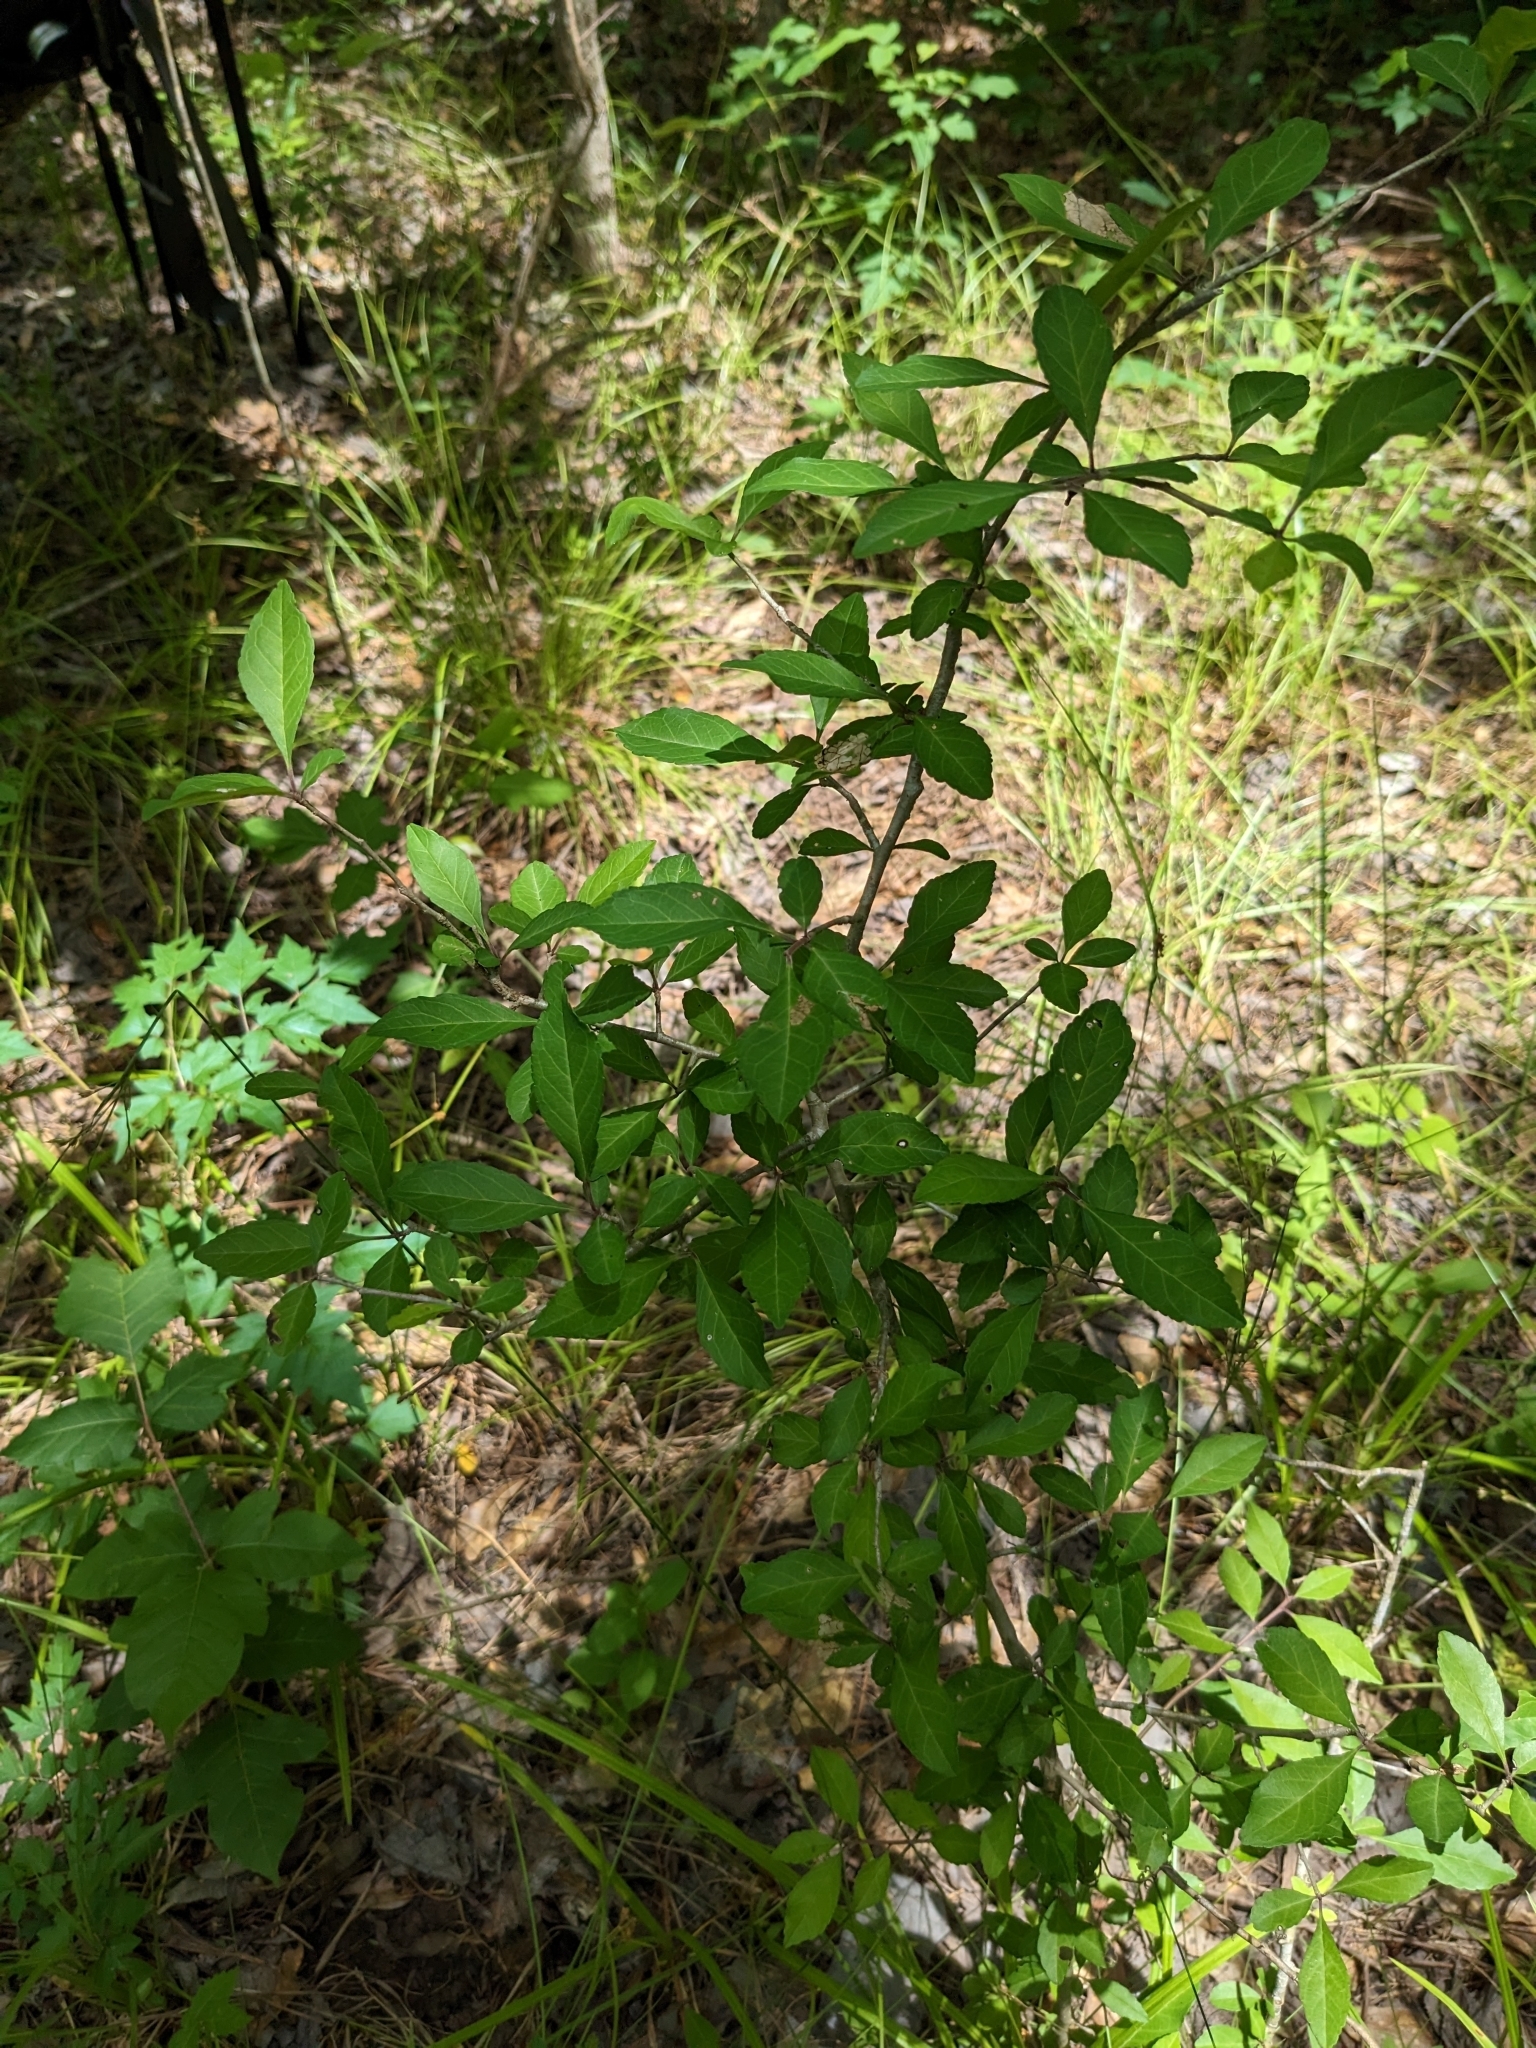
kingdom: Plantae
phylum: Tracheophyta
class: Magnoliopsida
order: Aquifoliales
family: Aquifoliaceae
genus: Ilex
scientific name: Ilex decidua
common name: Possum-haw
